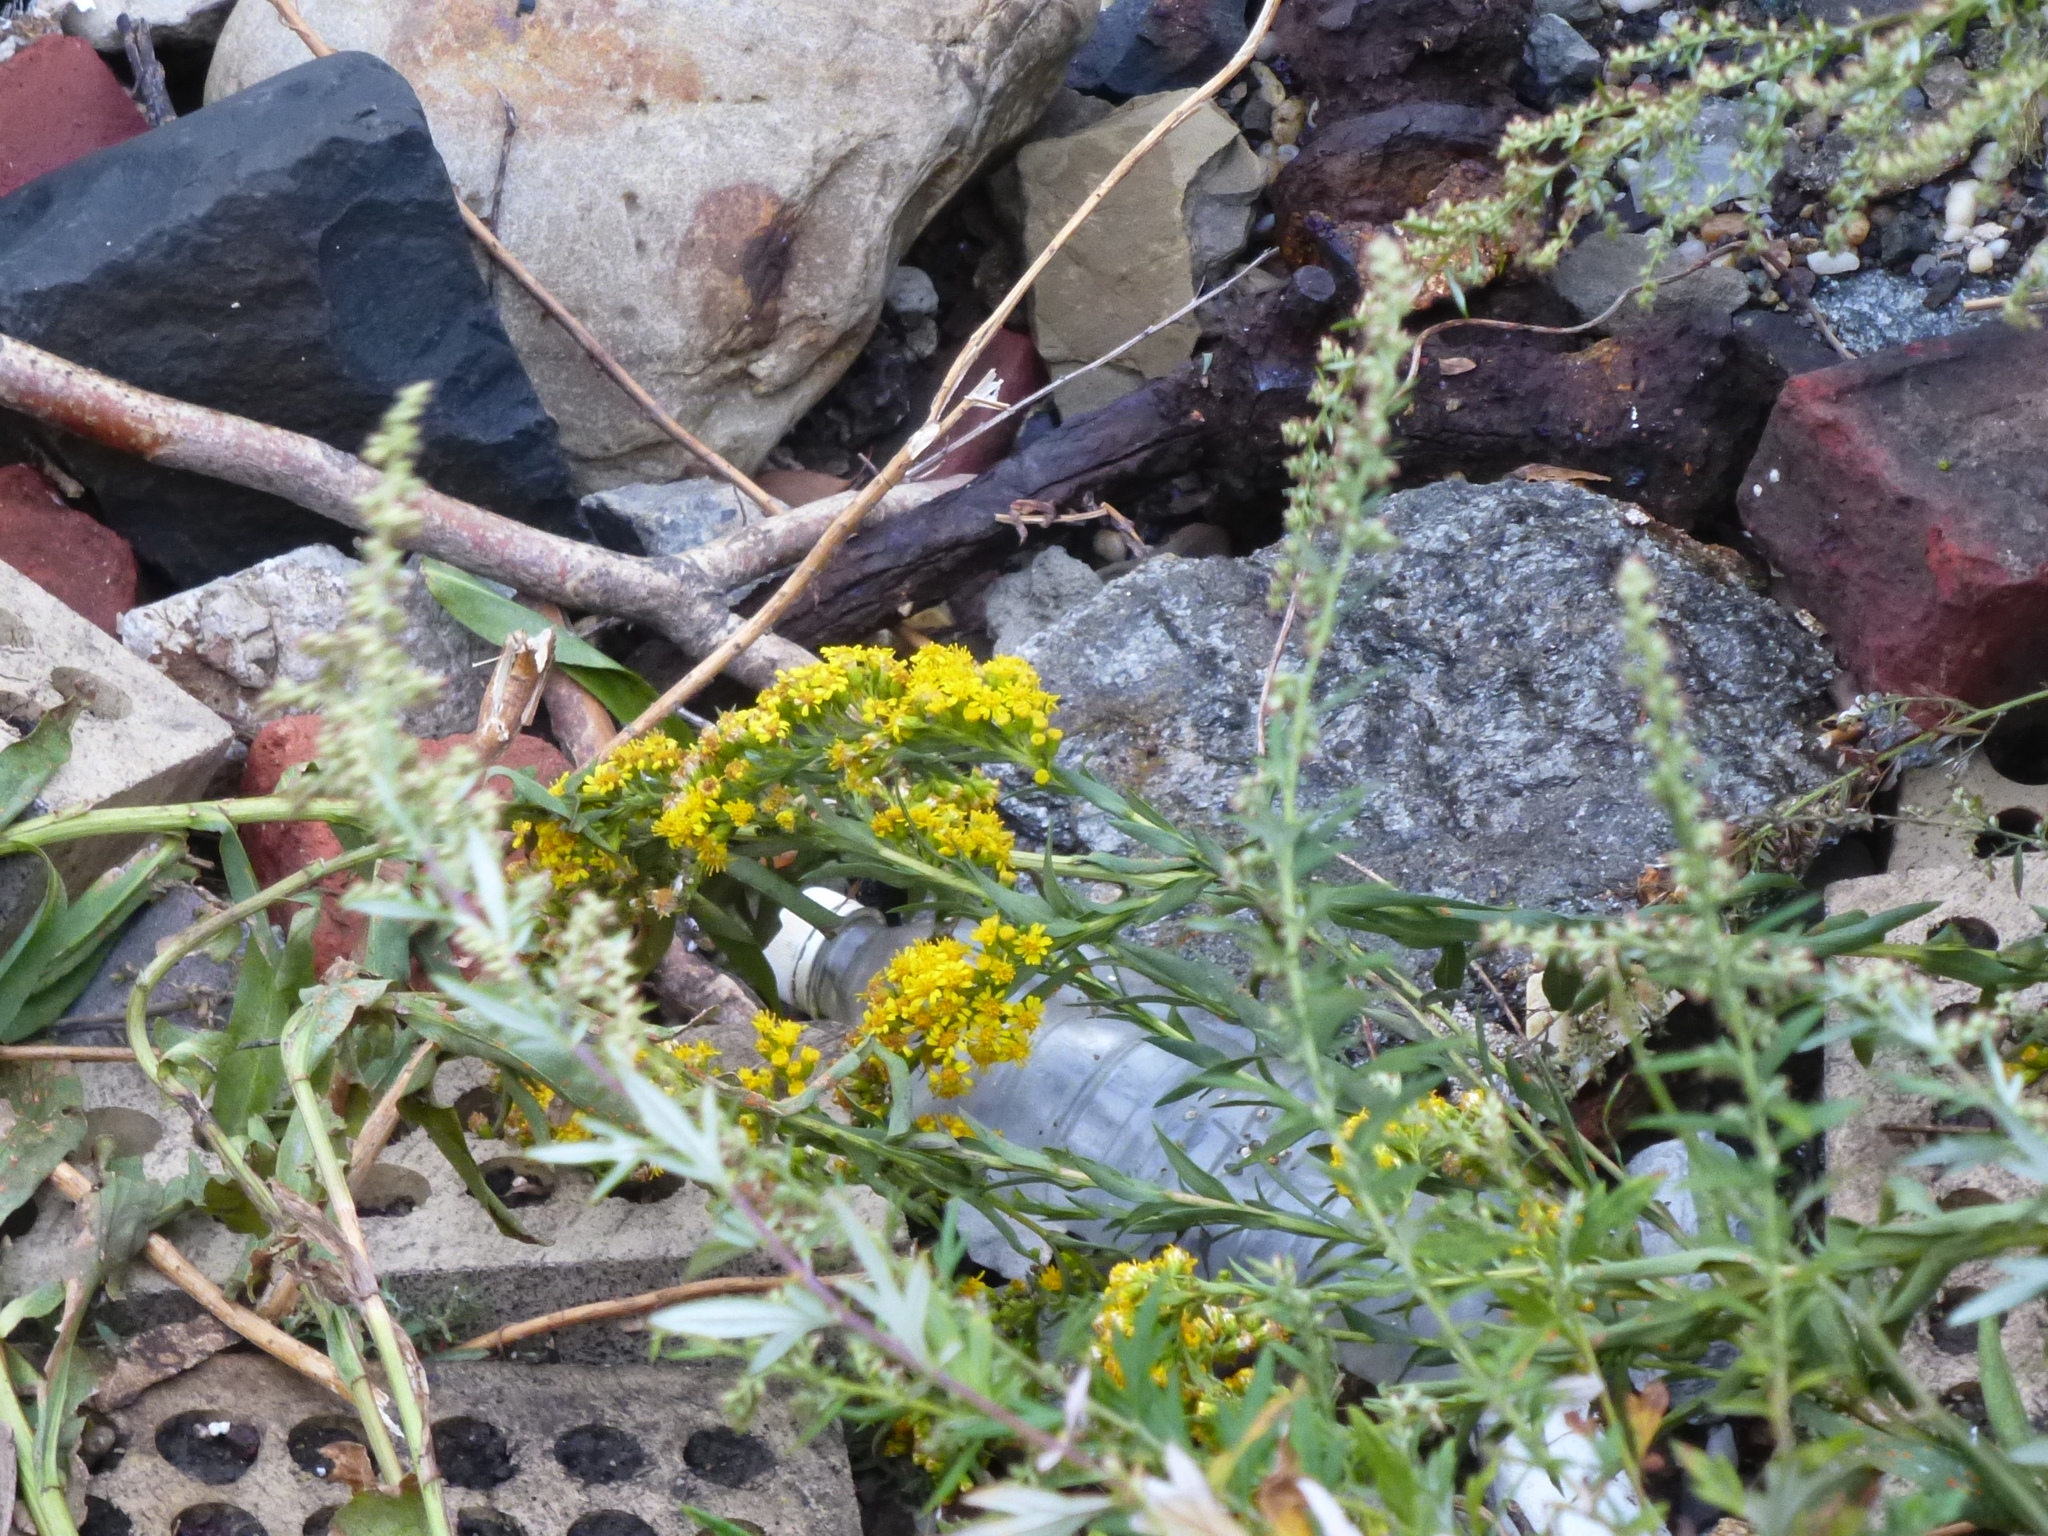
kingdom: Plantae
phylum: Tracheophyta
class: Magnoliopsida
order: Asterales
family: Asteraceae
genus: Solidago
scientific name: Solidago sempervirens
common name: Salt-marsh goldenrod
